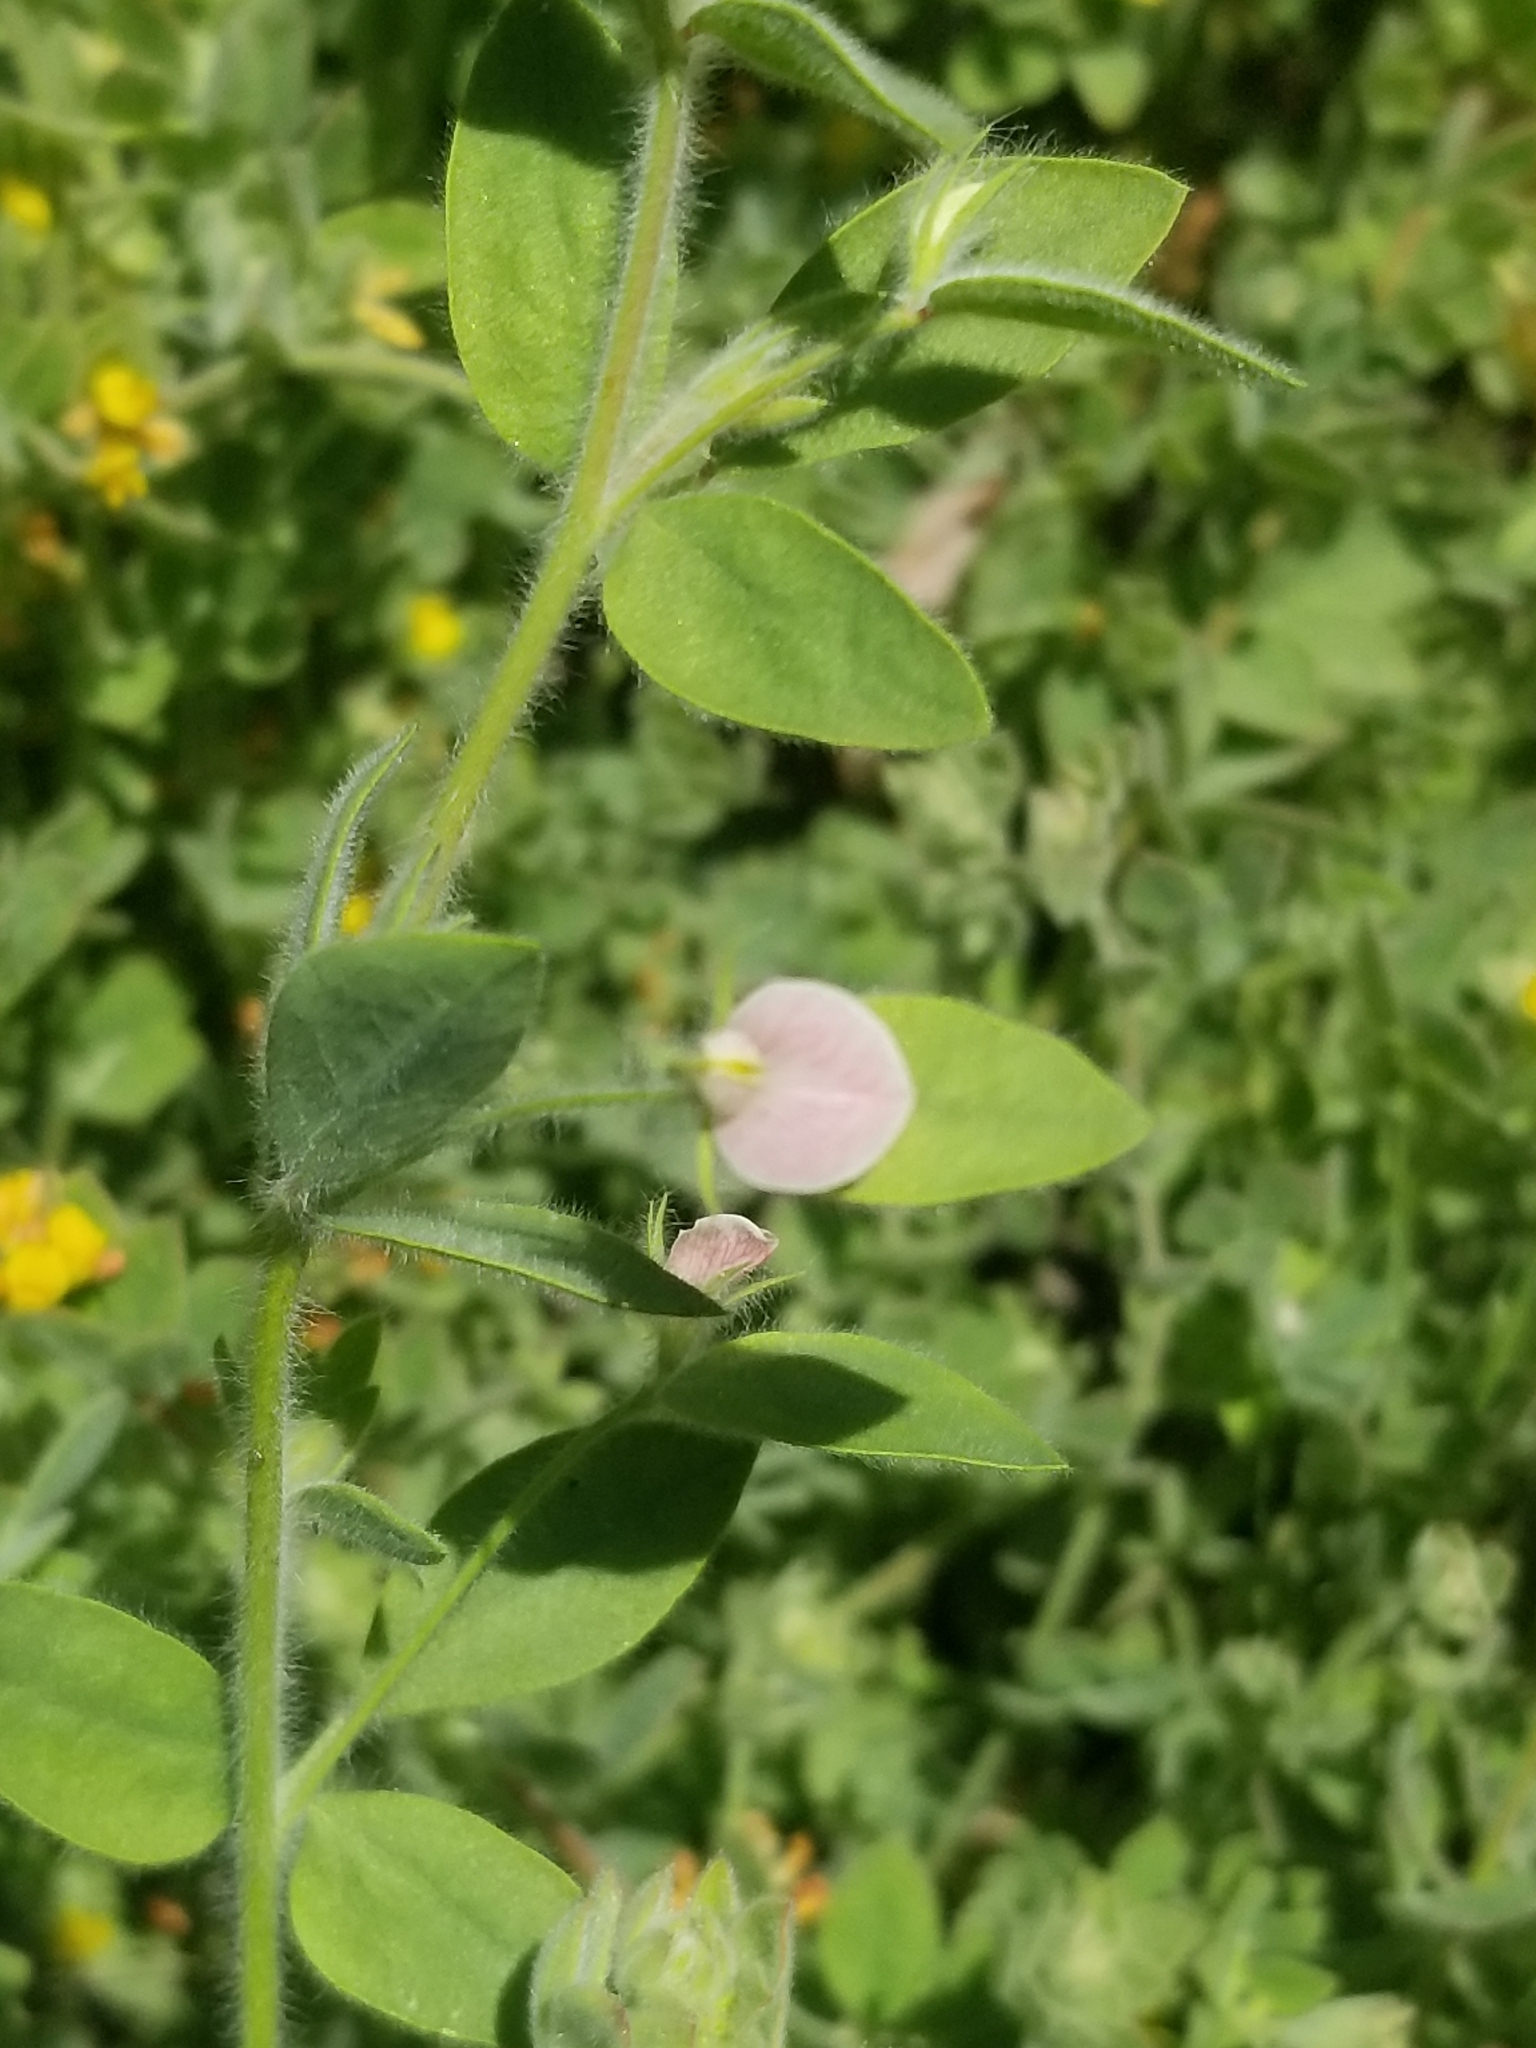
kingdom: Plantae
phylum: Tracheophyta
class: Magnoliopsida
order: Fabales
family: Fabaceae
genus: Acmispon
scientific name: Acmispon americanus
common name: American bird's-foot trefoil
